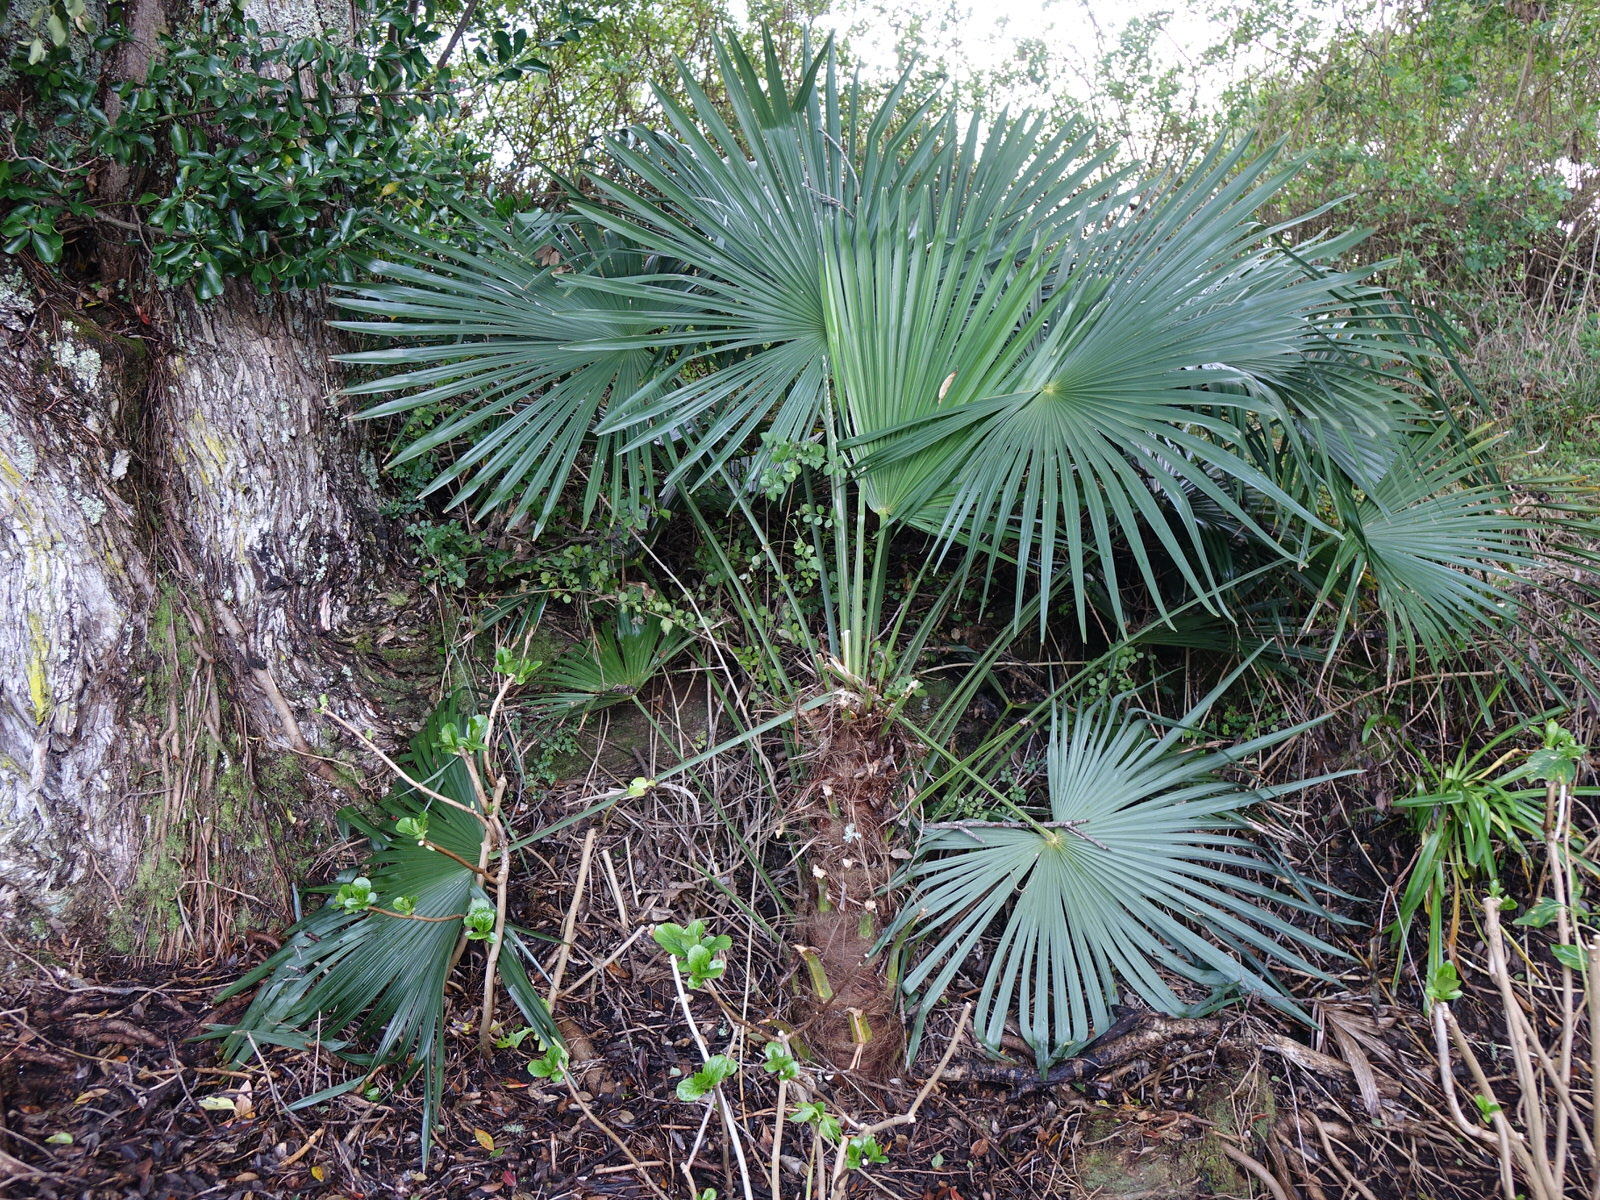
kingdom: Plantae
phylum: Tracheophyta
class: Liliopsida
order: Arecales
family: Arecaceae
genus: Trachycarpus
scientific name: Trachycarpus fortunei
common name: Chusan palm
